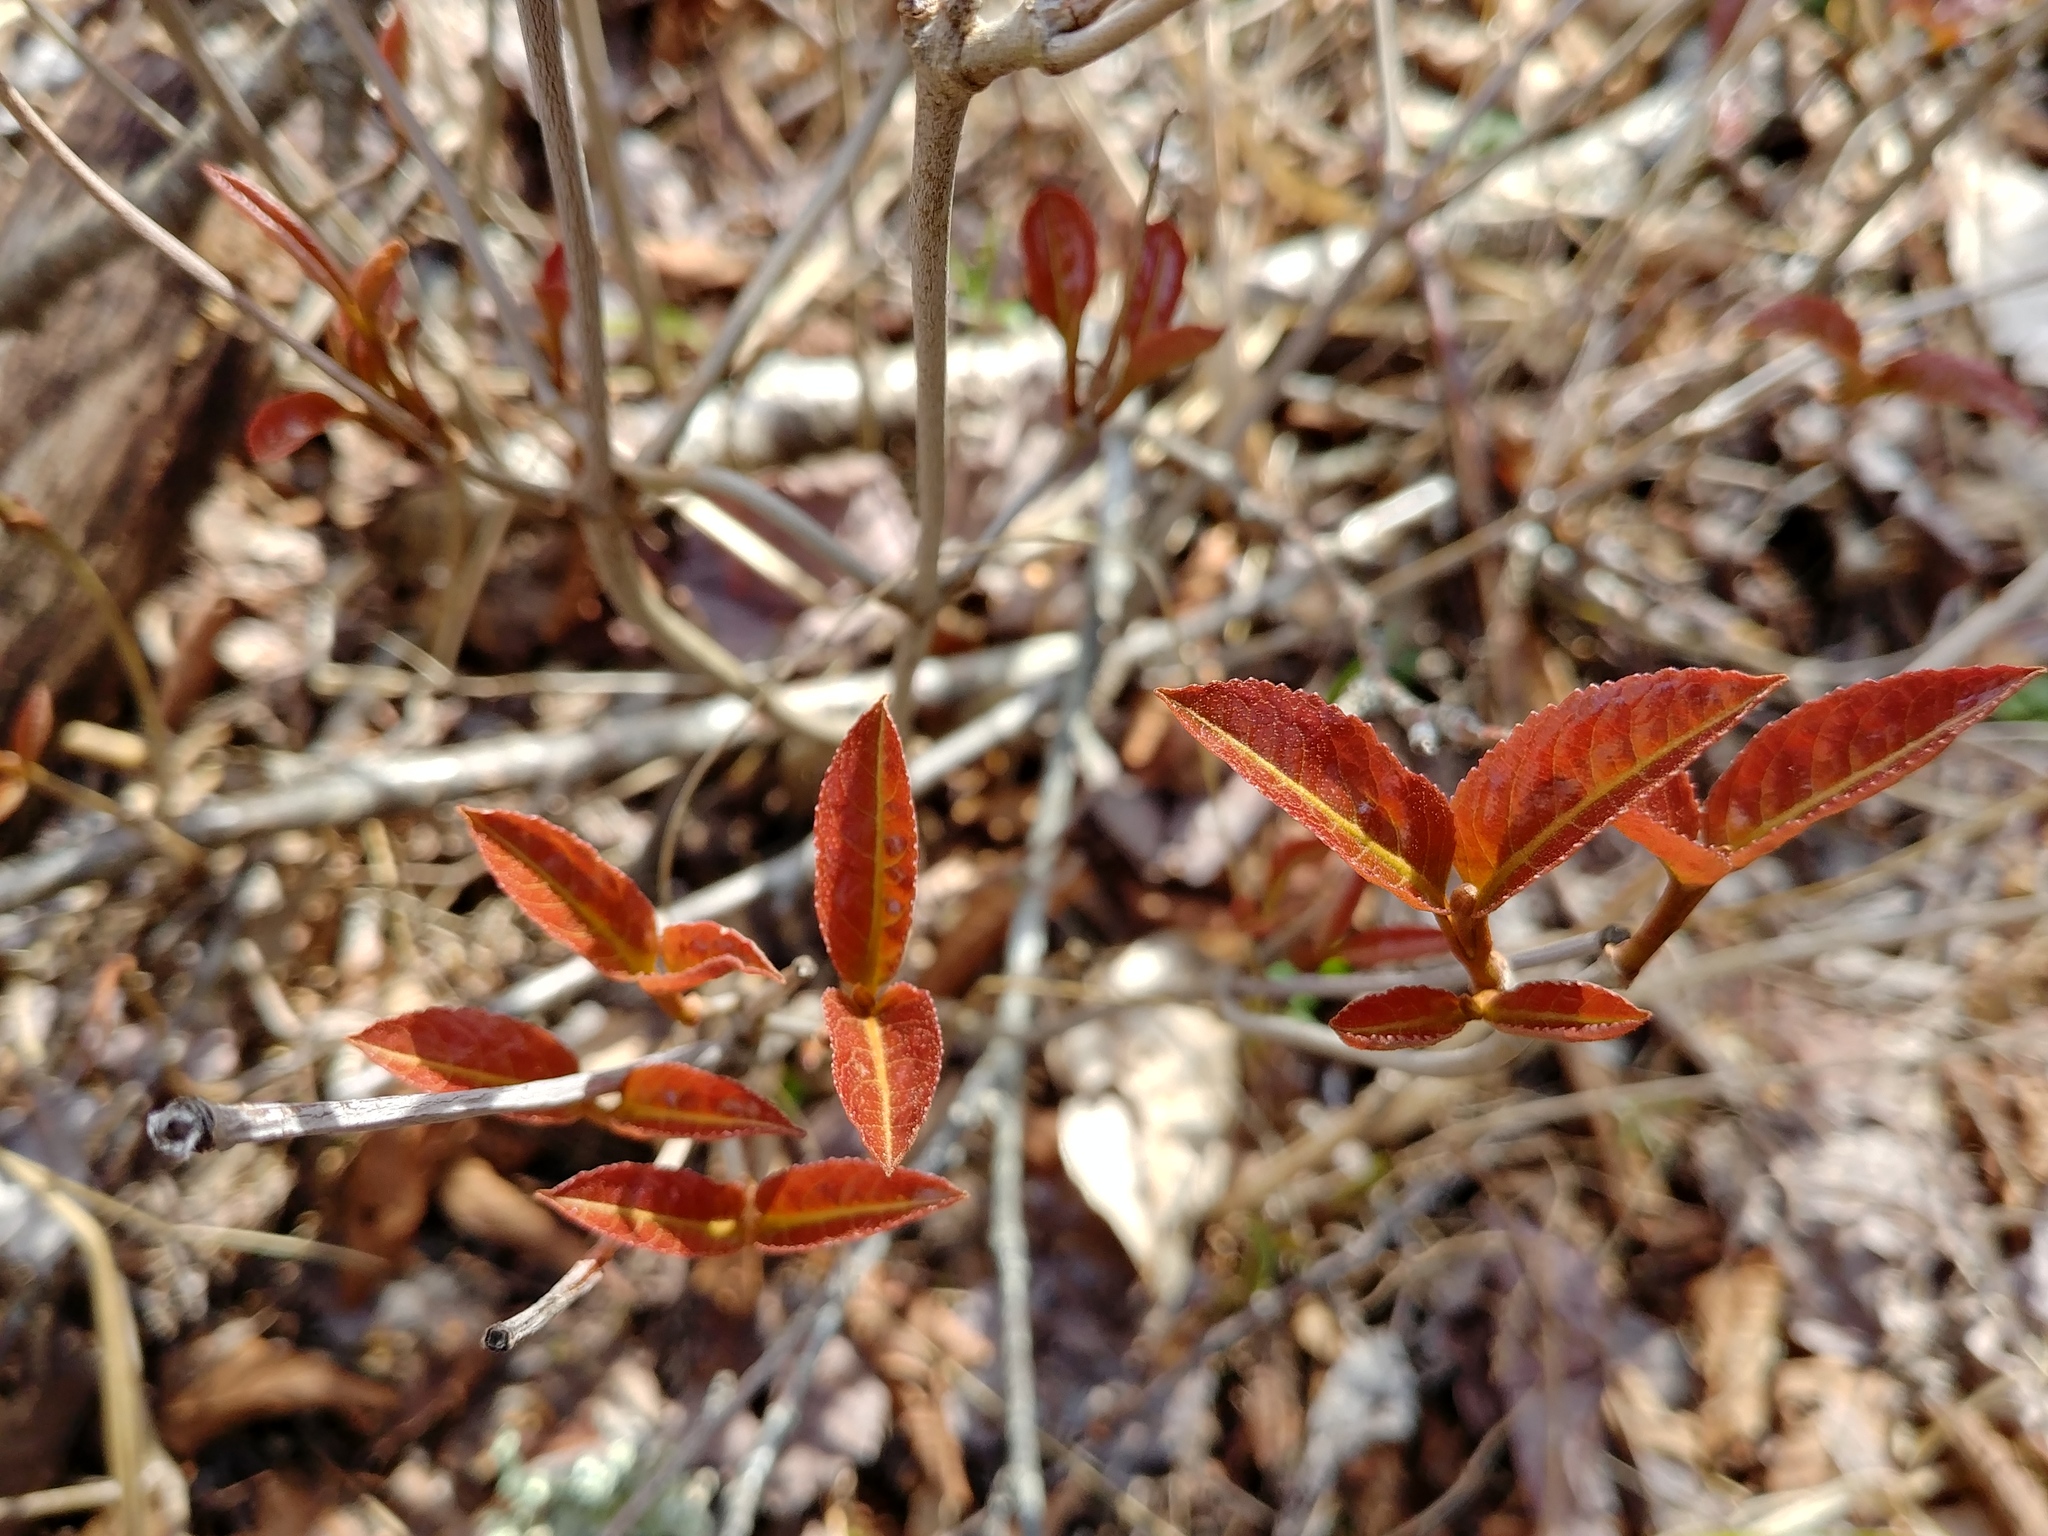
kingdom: Plantae
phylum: Tracheophyta
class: Magnoliopsida
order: Dipsacales
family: Viburnaceae
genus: Viburnum
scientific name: Viburnum cassinoides
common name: Swamp haw
